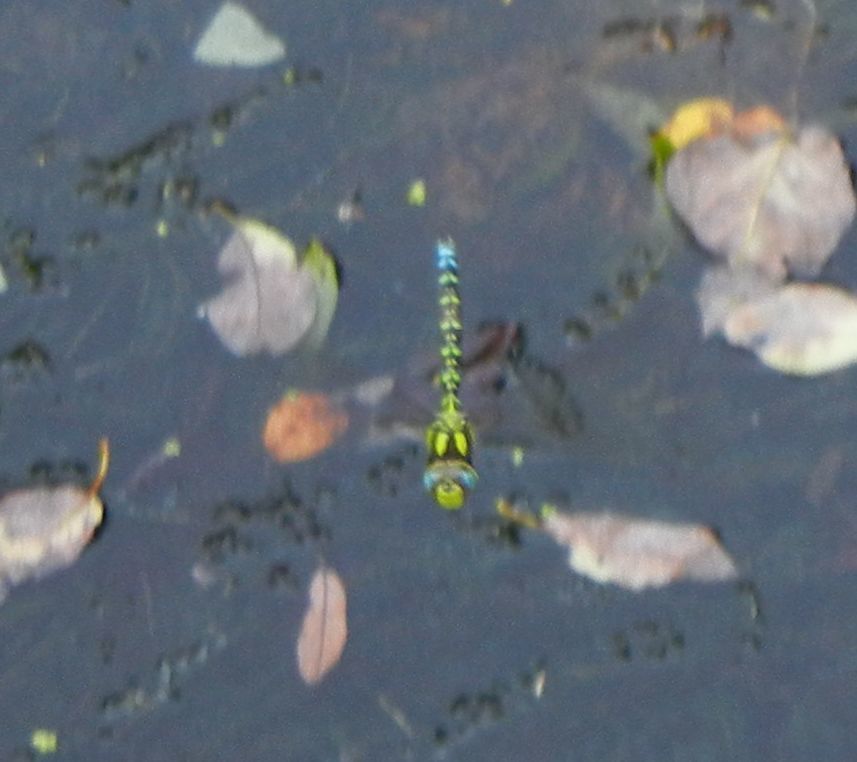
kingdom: Animalia
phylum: Arthropoda
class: Insecta
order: Odonata
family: Aeshnidae
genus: Aeshna
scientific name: Aeshna cyanea
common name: Southern hawker
